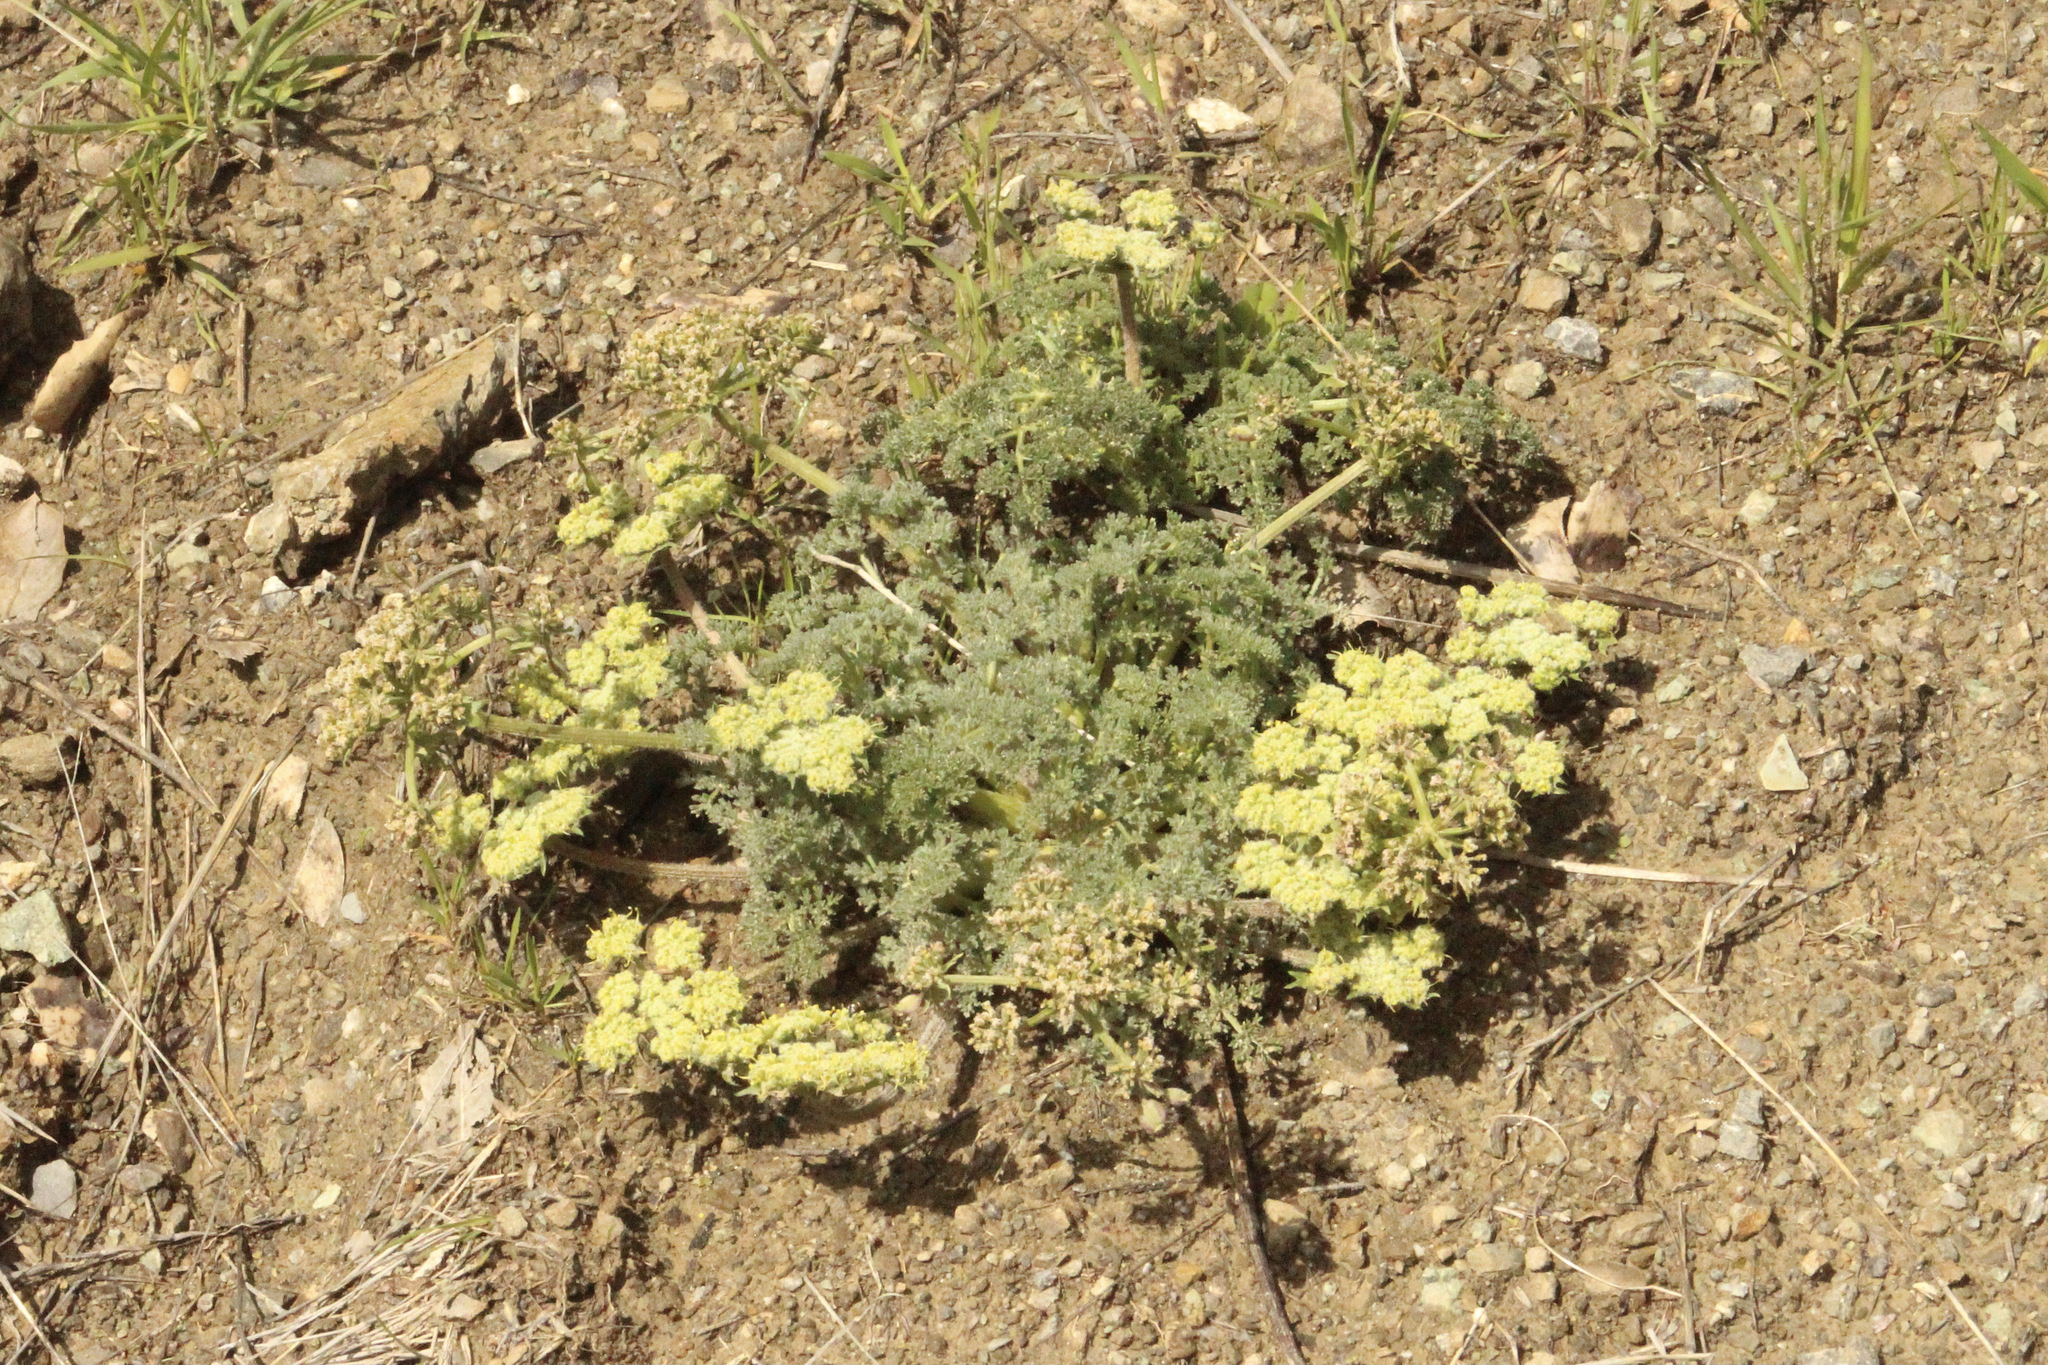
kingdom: Plantae
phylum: Tracheophyta
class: Magnoliopsida
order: Apiales
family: Apiaceae
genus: Lomatium
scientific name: Lomatium dasycarpum
